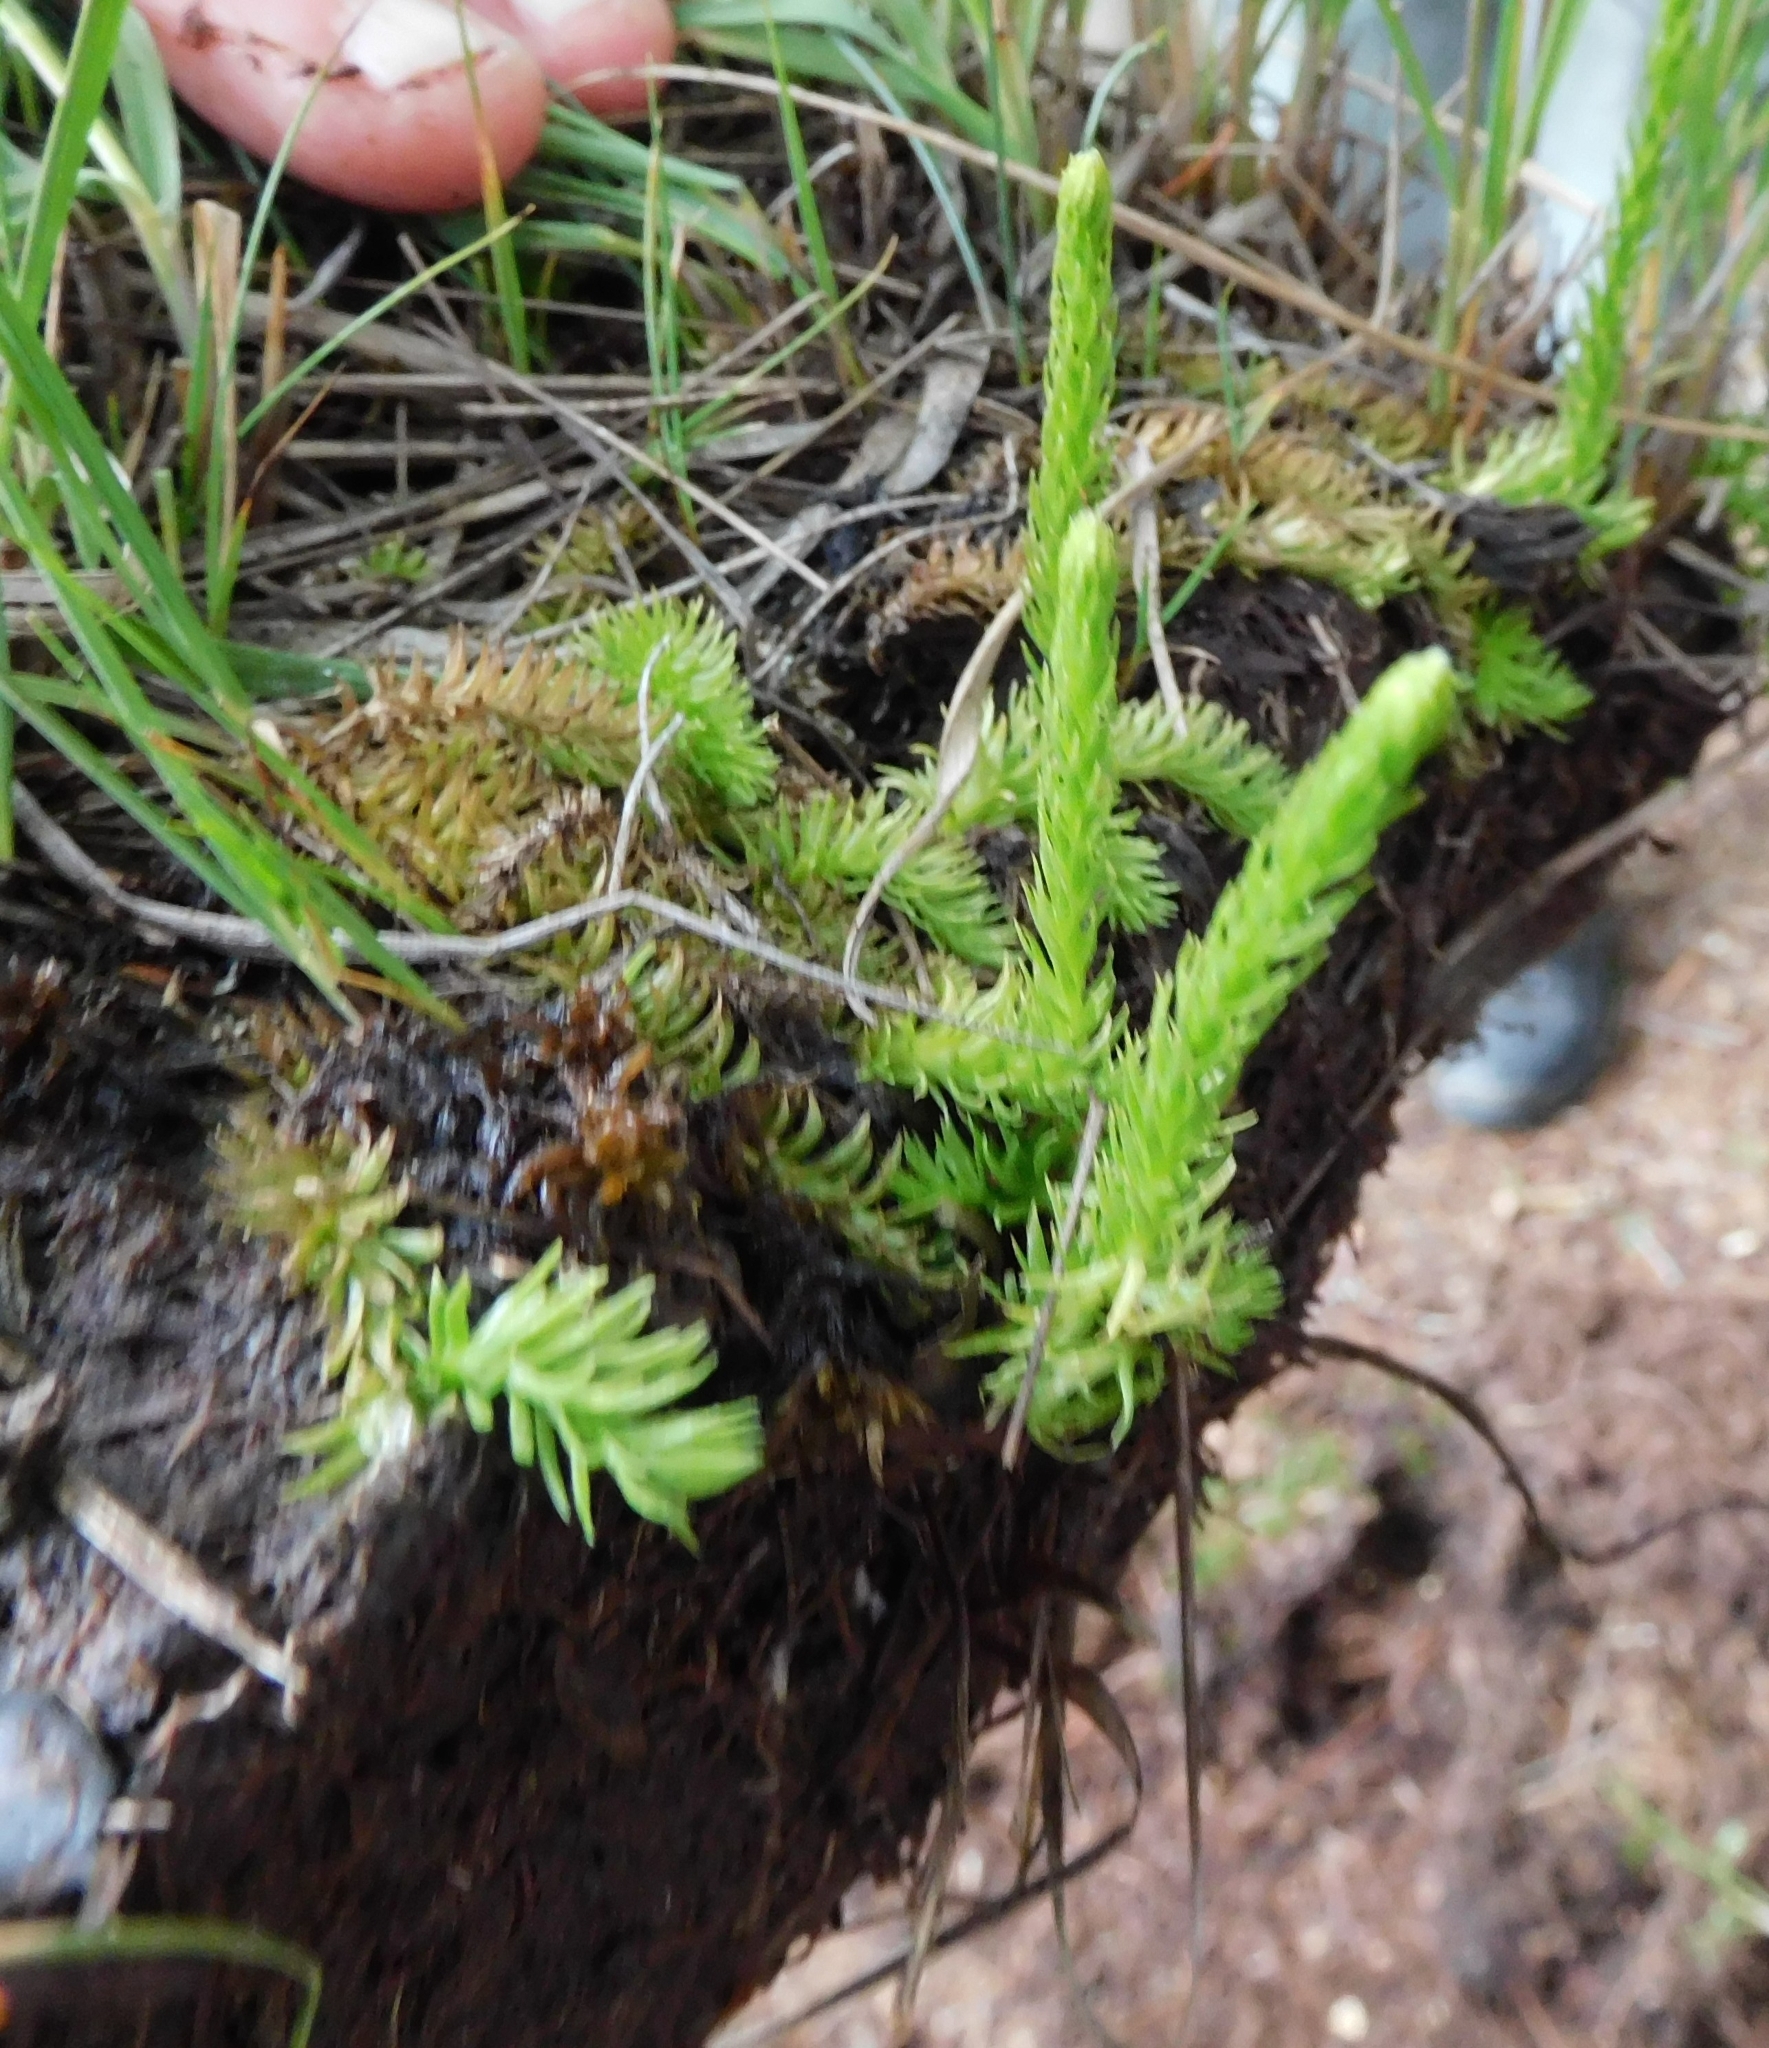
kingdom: Plantae
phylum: Tracheophyta
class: Lycopodiopsida
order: Lycopodiales
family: Lycopodiaceae
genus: Lycopodiella
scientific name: Lycopodiella inundata
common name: Marsh clubmoss
